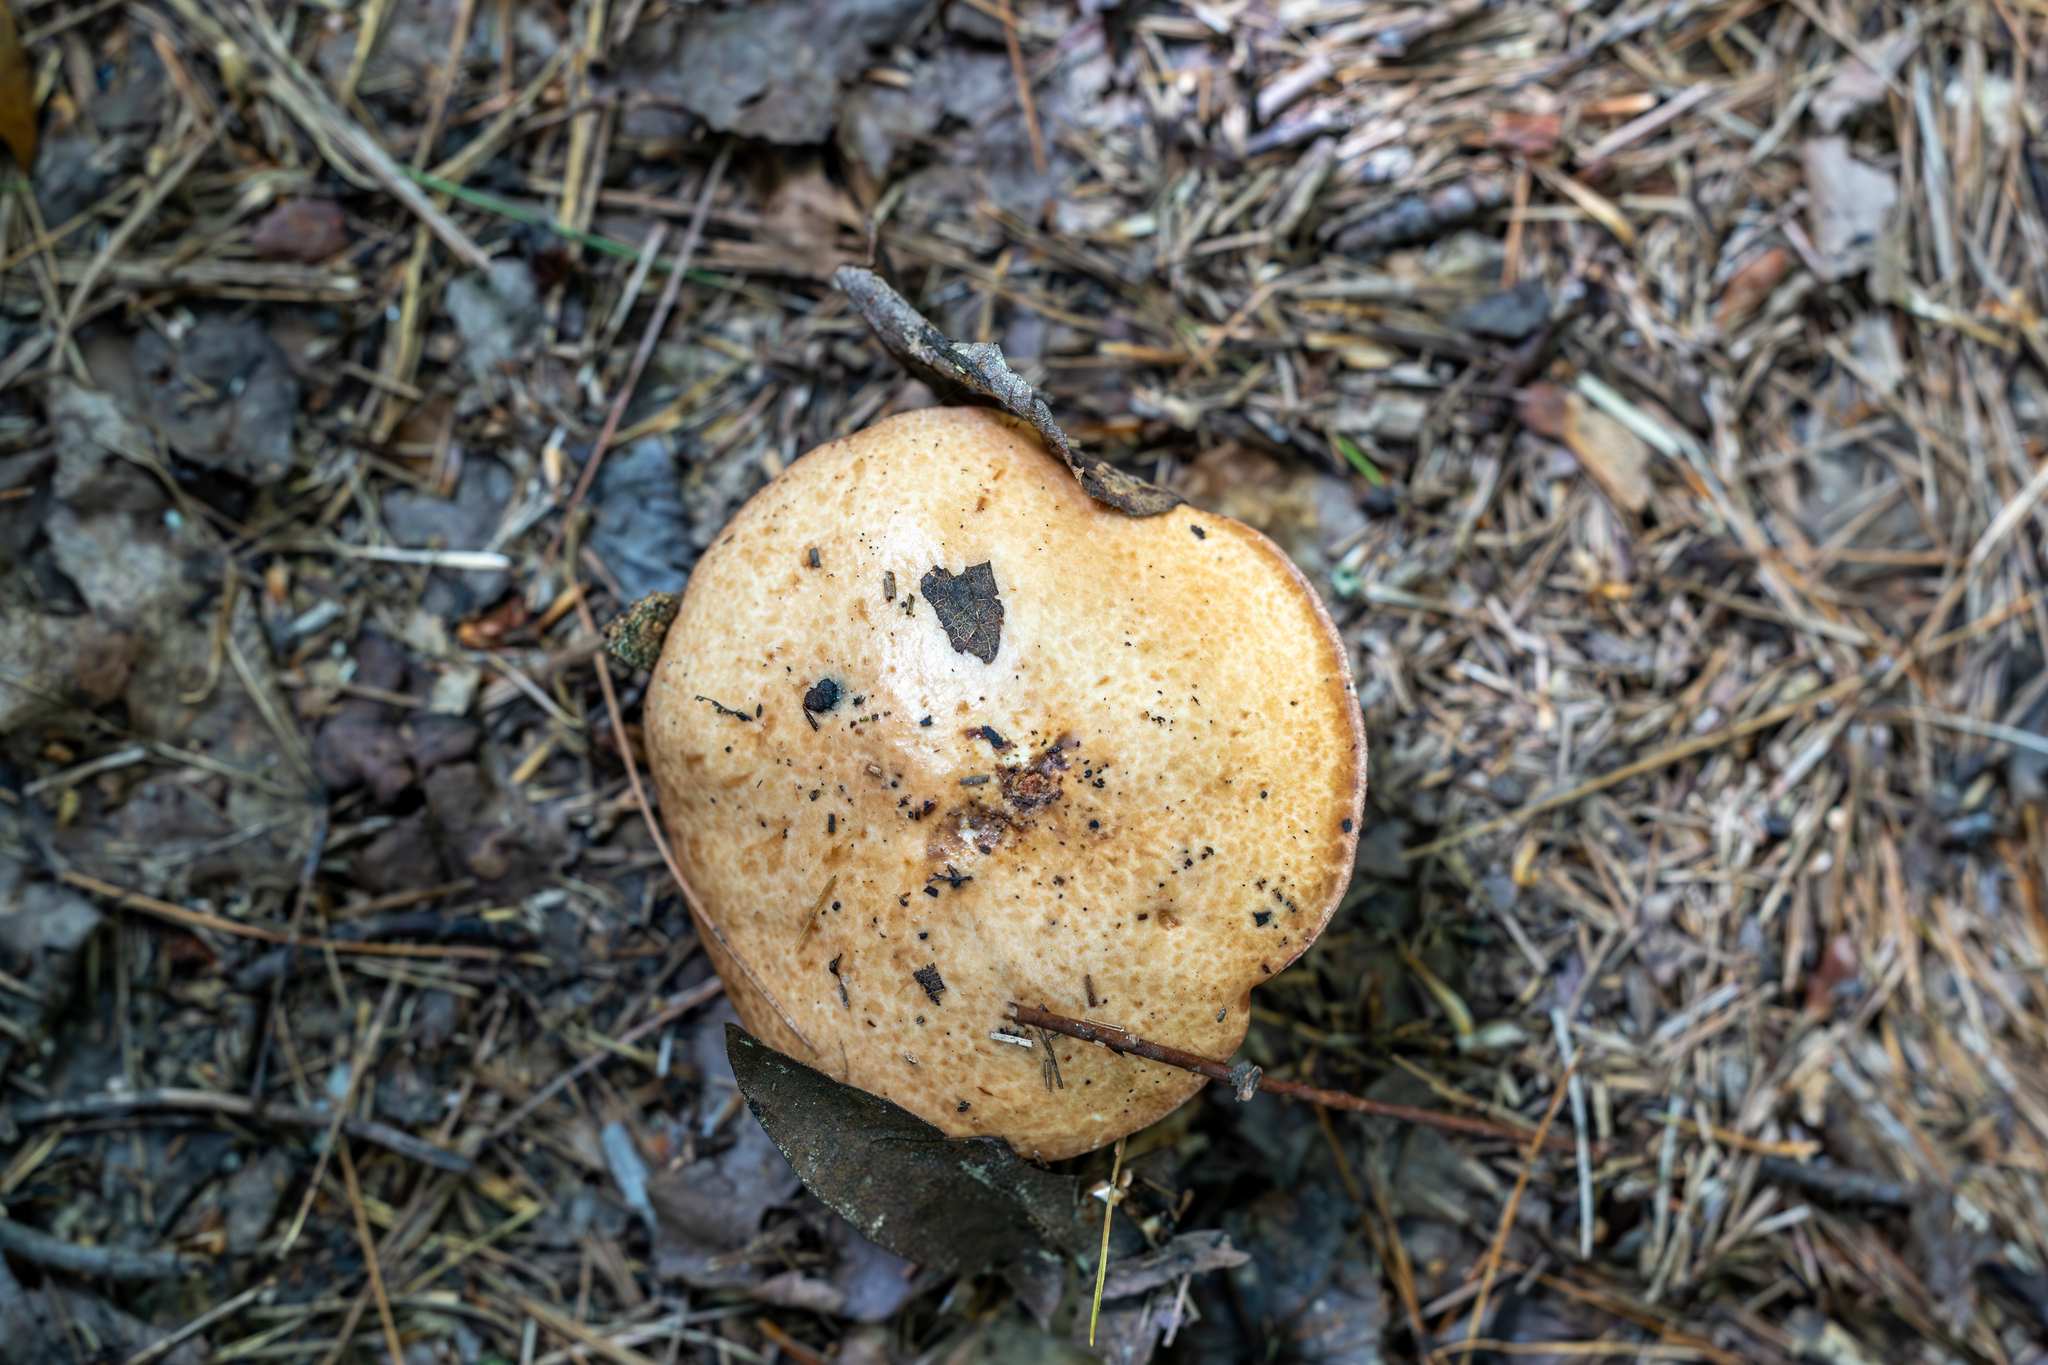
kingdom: Fungi
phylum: Basidiomycota
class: Agaricomycetes
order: Boletales
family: Suillaceae
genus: Fuscoboletinus
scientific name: Fuscoboletinus weaverae
